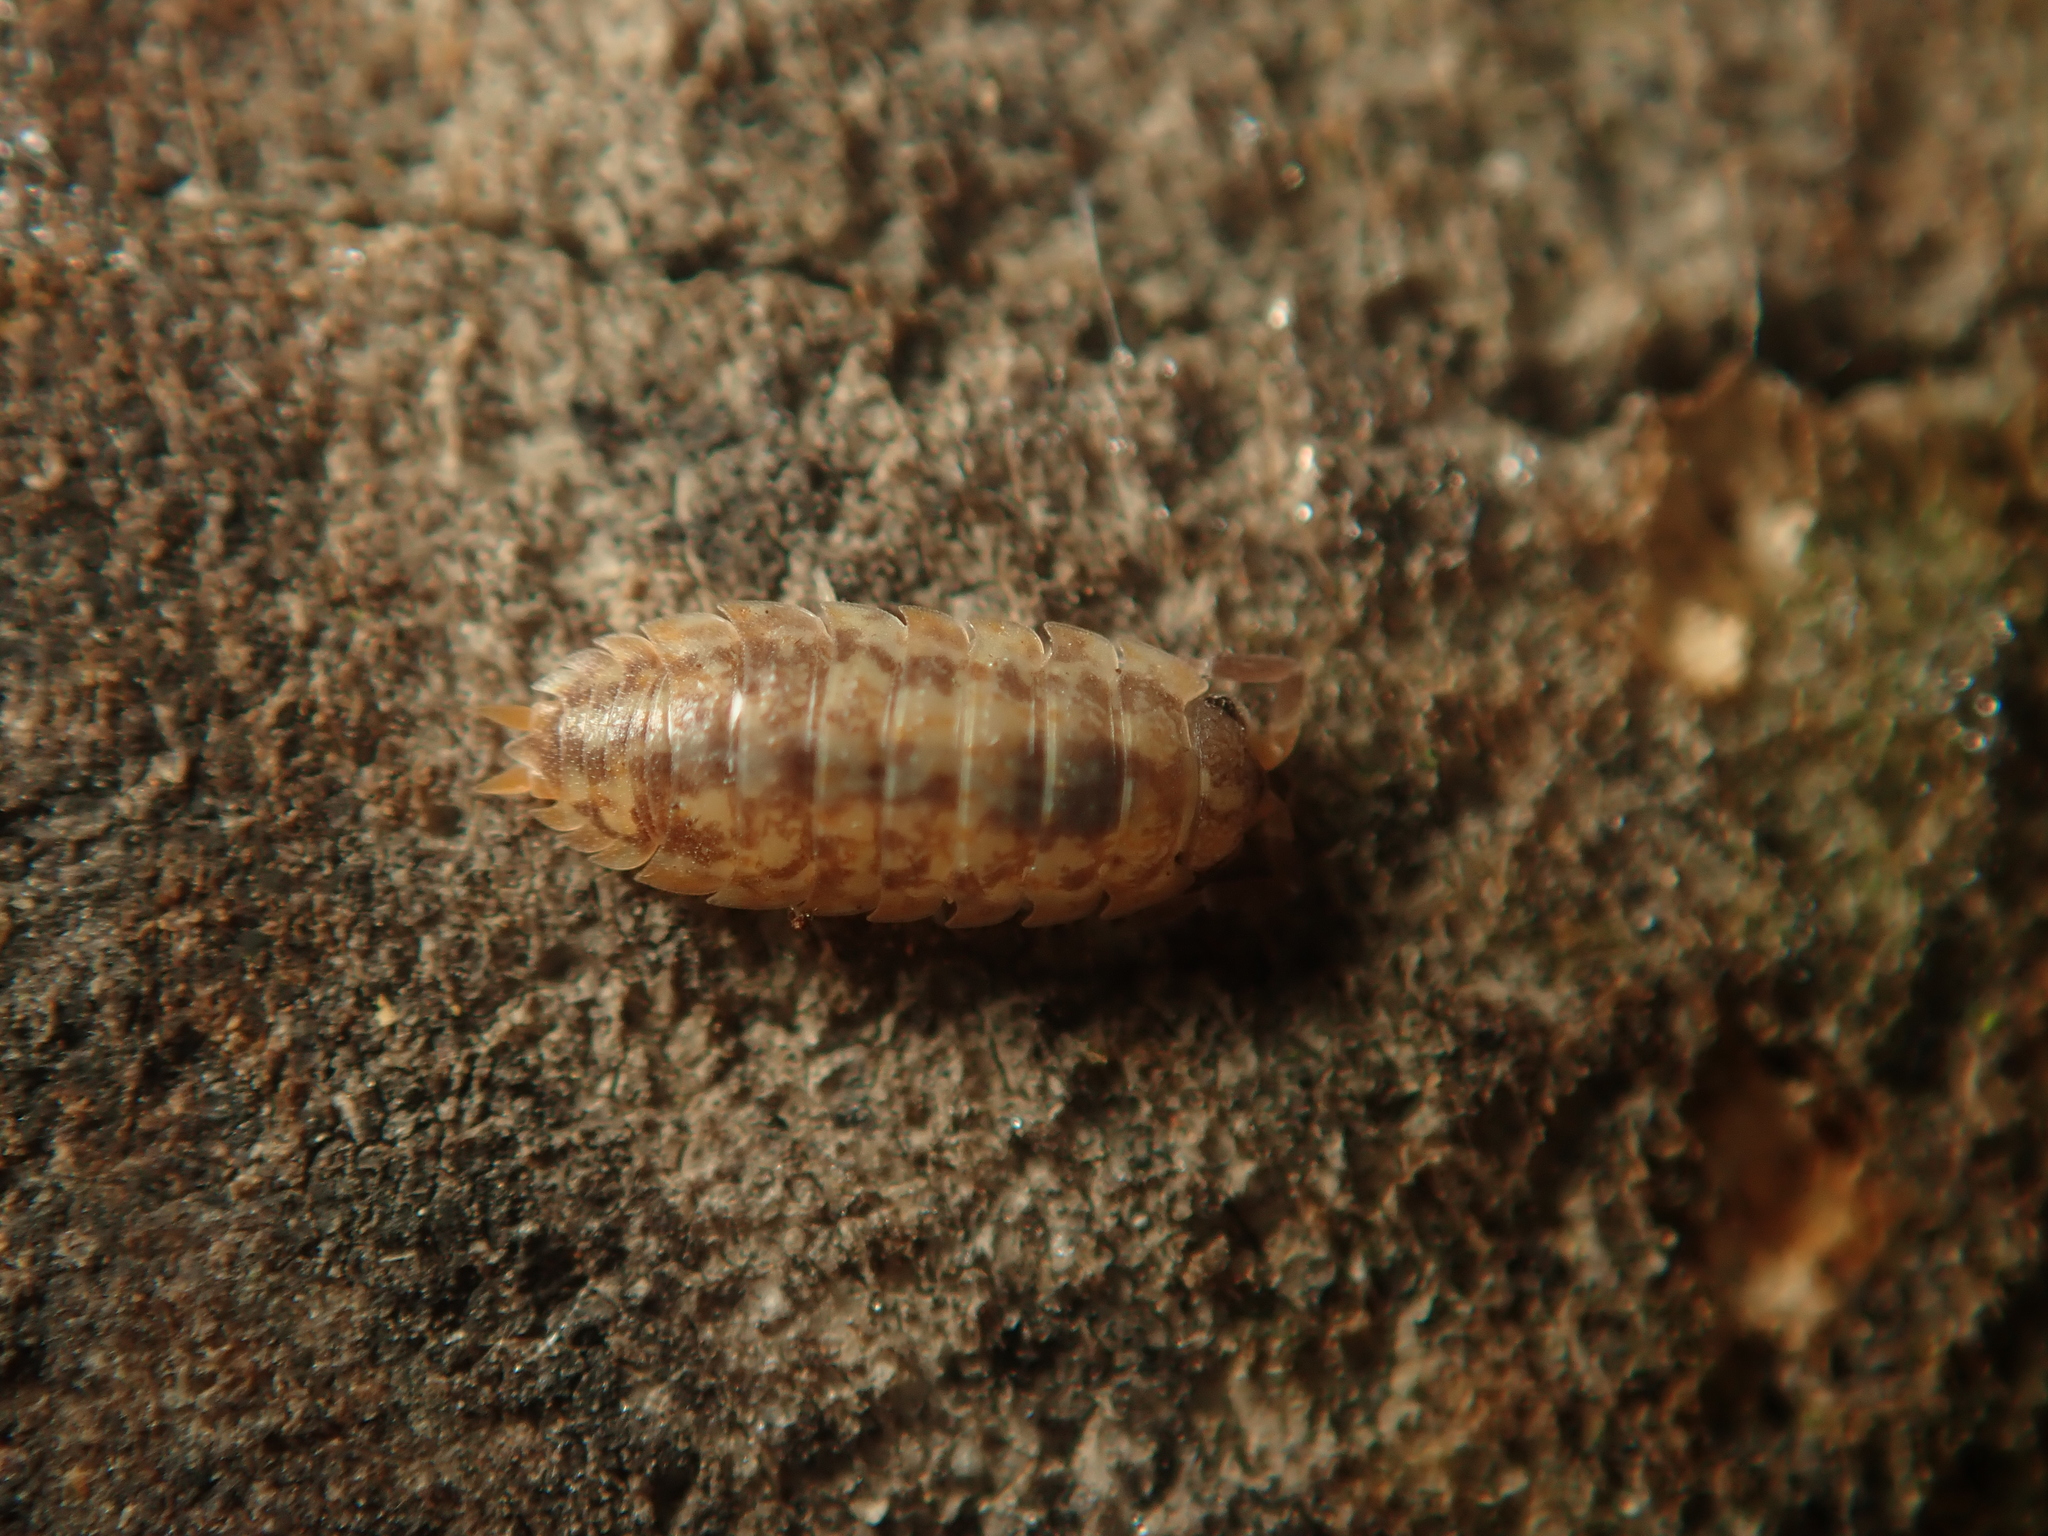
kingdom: Animalia
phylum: Arthropoda
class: Malacostraca
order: Isopoda
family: Trachelipodidae
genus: Porcellium
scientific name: Porcellium collicola
